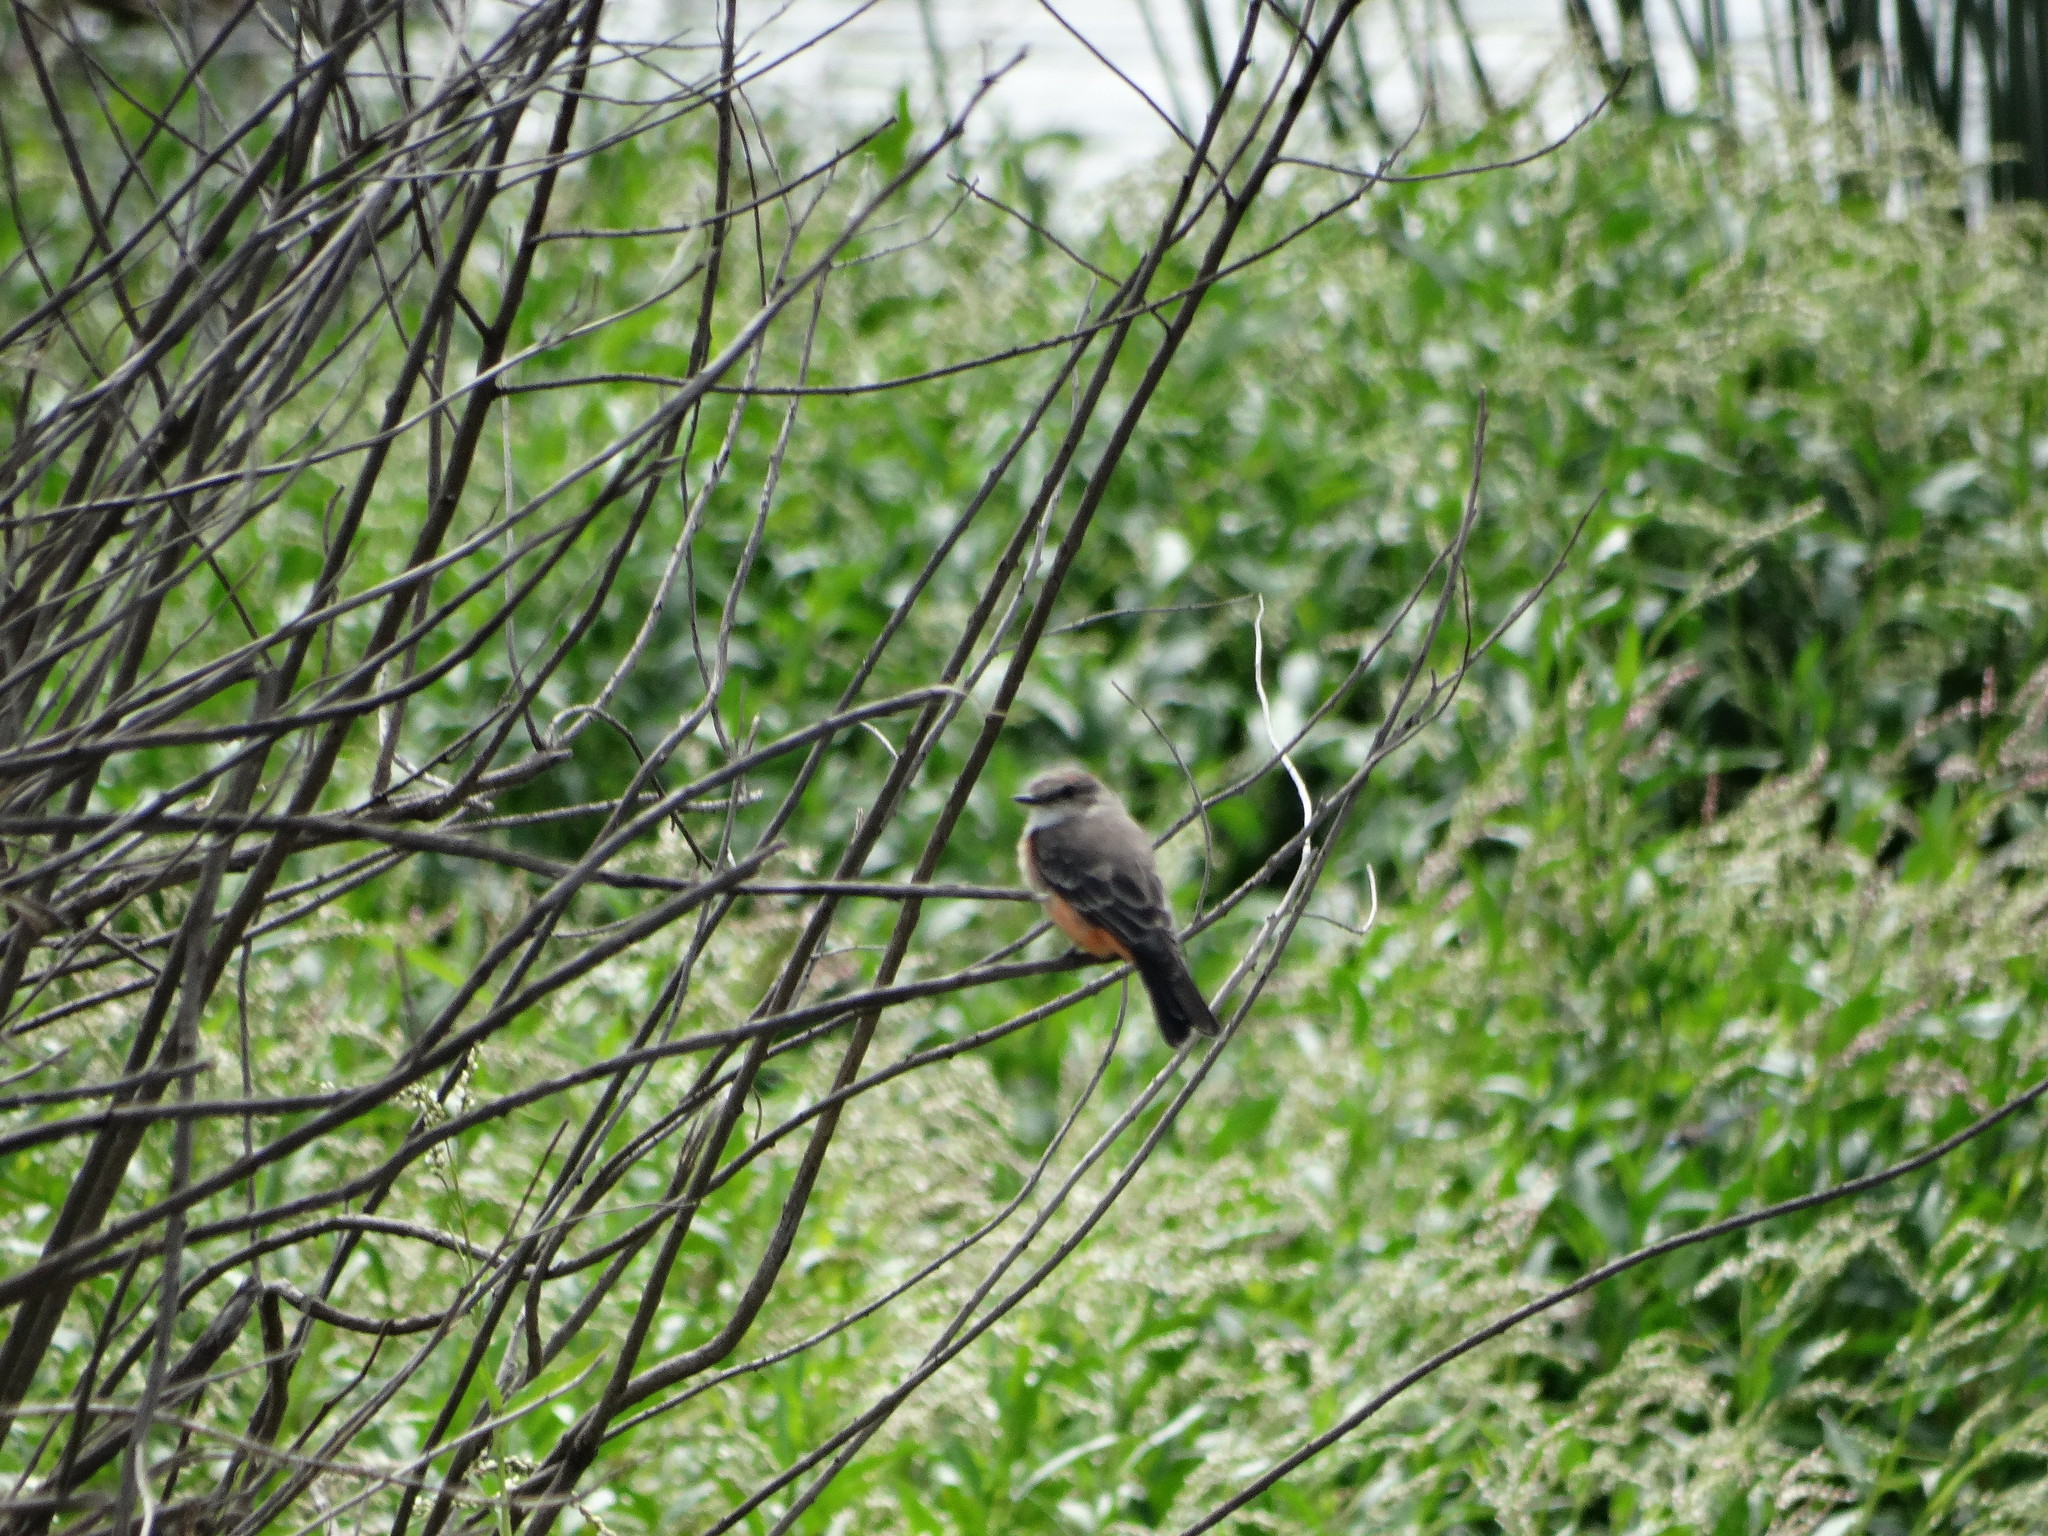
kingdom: Animalia
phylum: Chordata
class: Aves
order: Passeriformes
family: Tyrannidae
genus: Pyrocephalus
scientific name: Pyrocephalus rubinus
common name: Vermilion flycatcher
